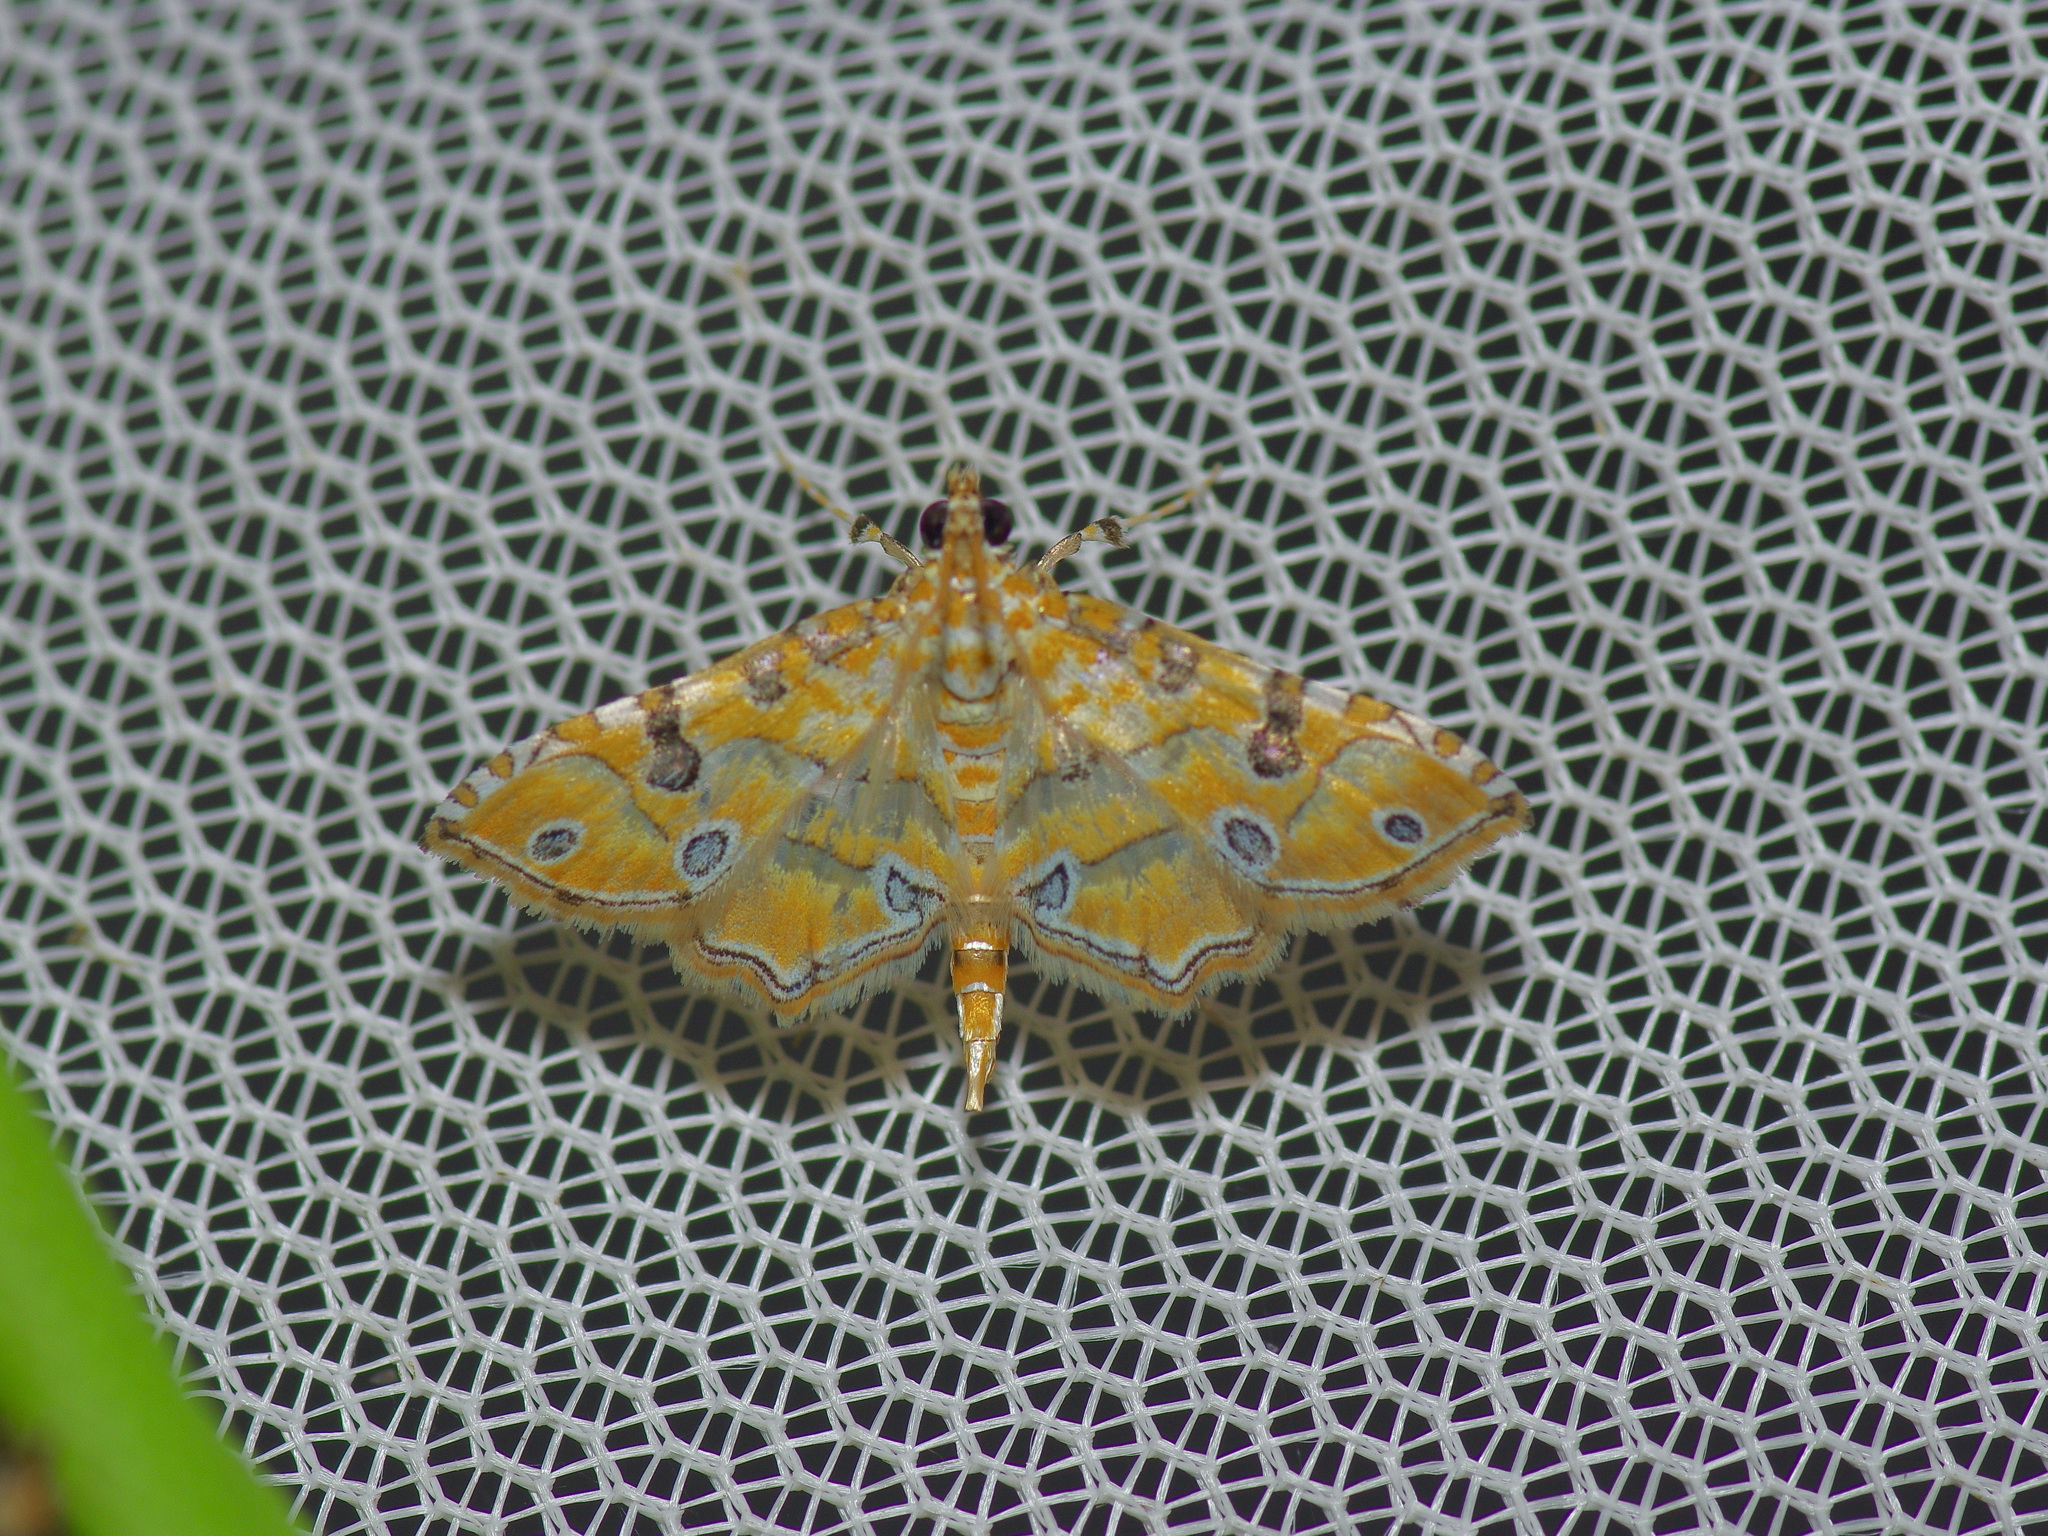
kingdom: Animalia
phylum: Arthropoda
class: Insecta
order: Lepidoptera
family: Crambidae
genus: Ommatospila
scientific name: Ommatospila narcaeusalis
